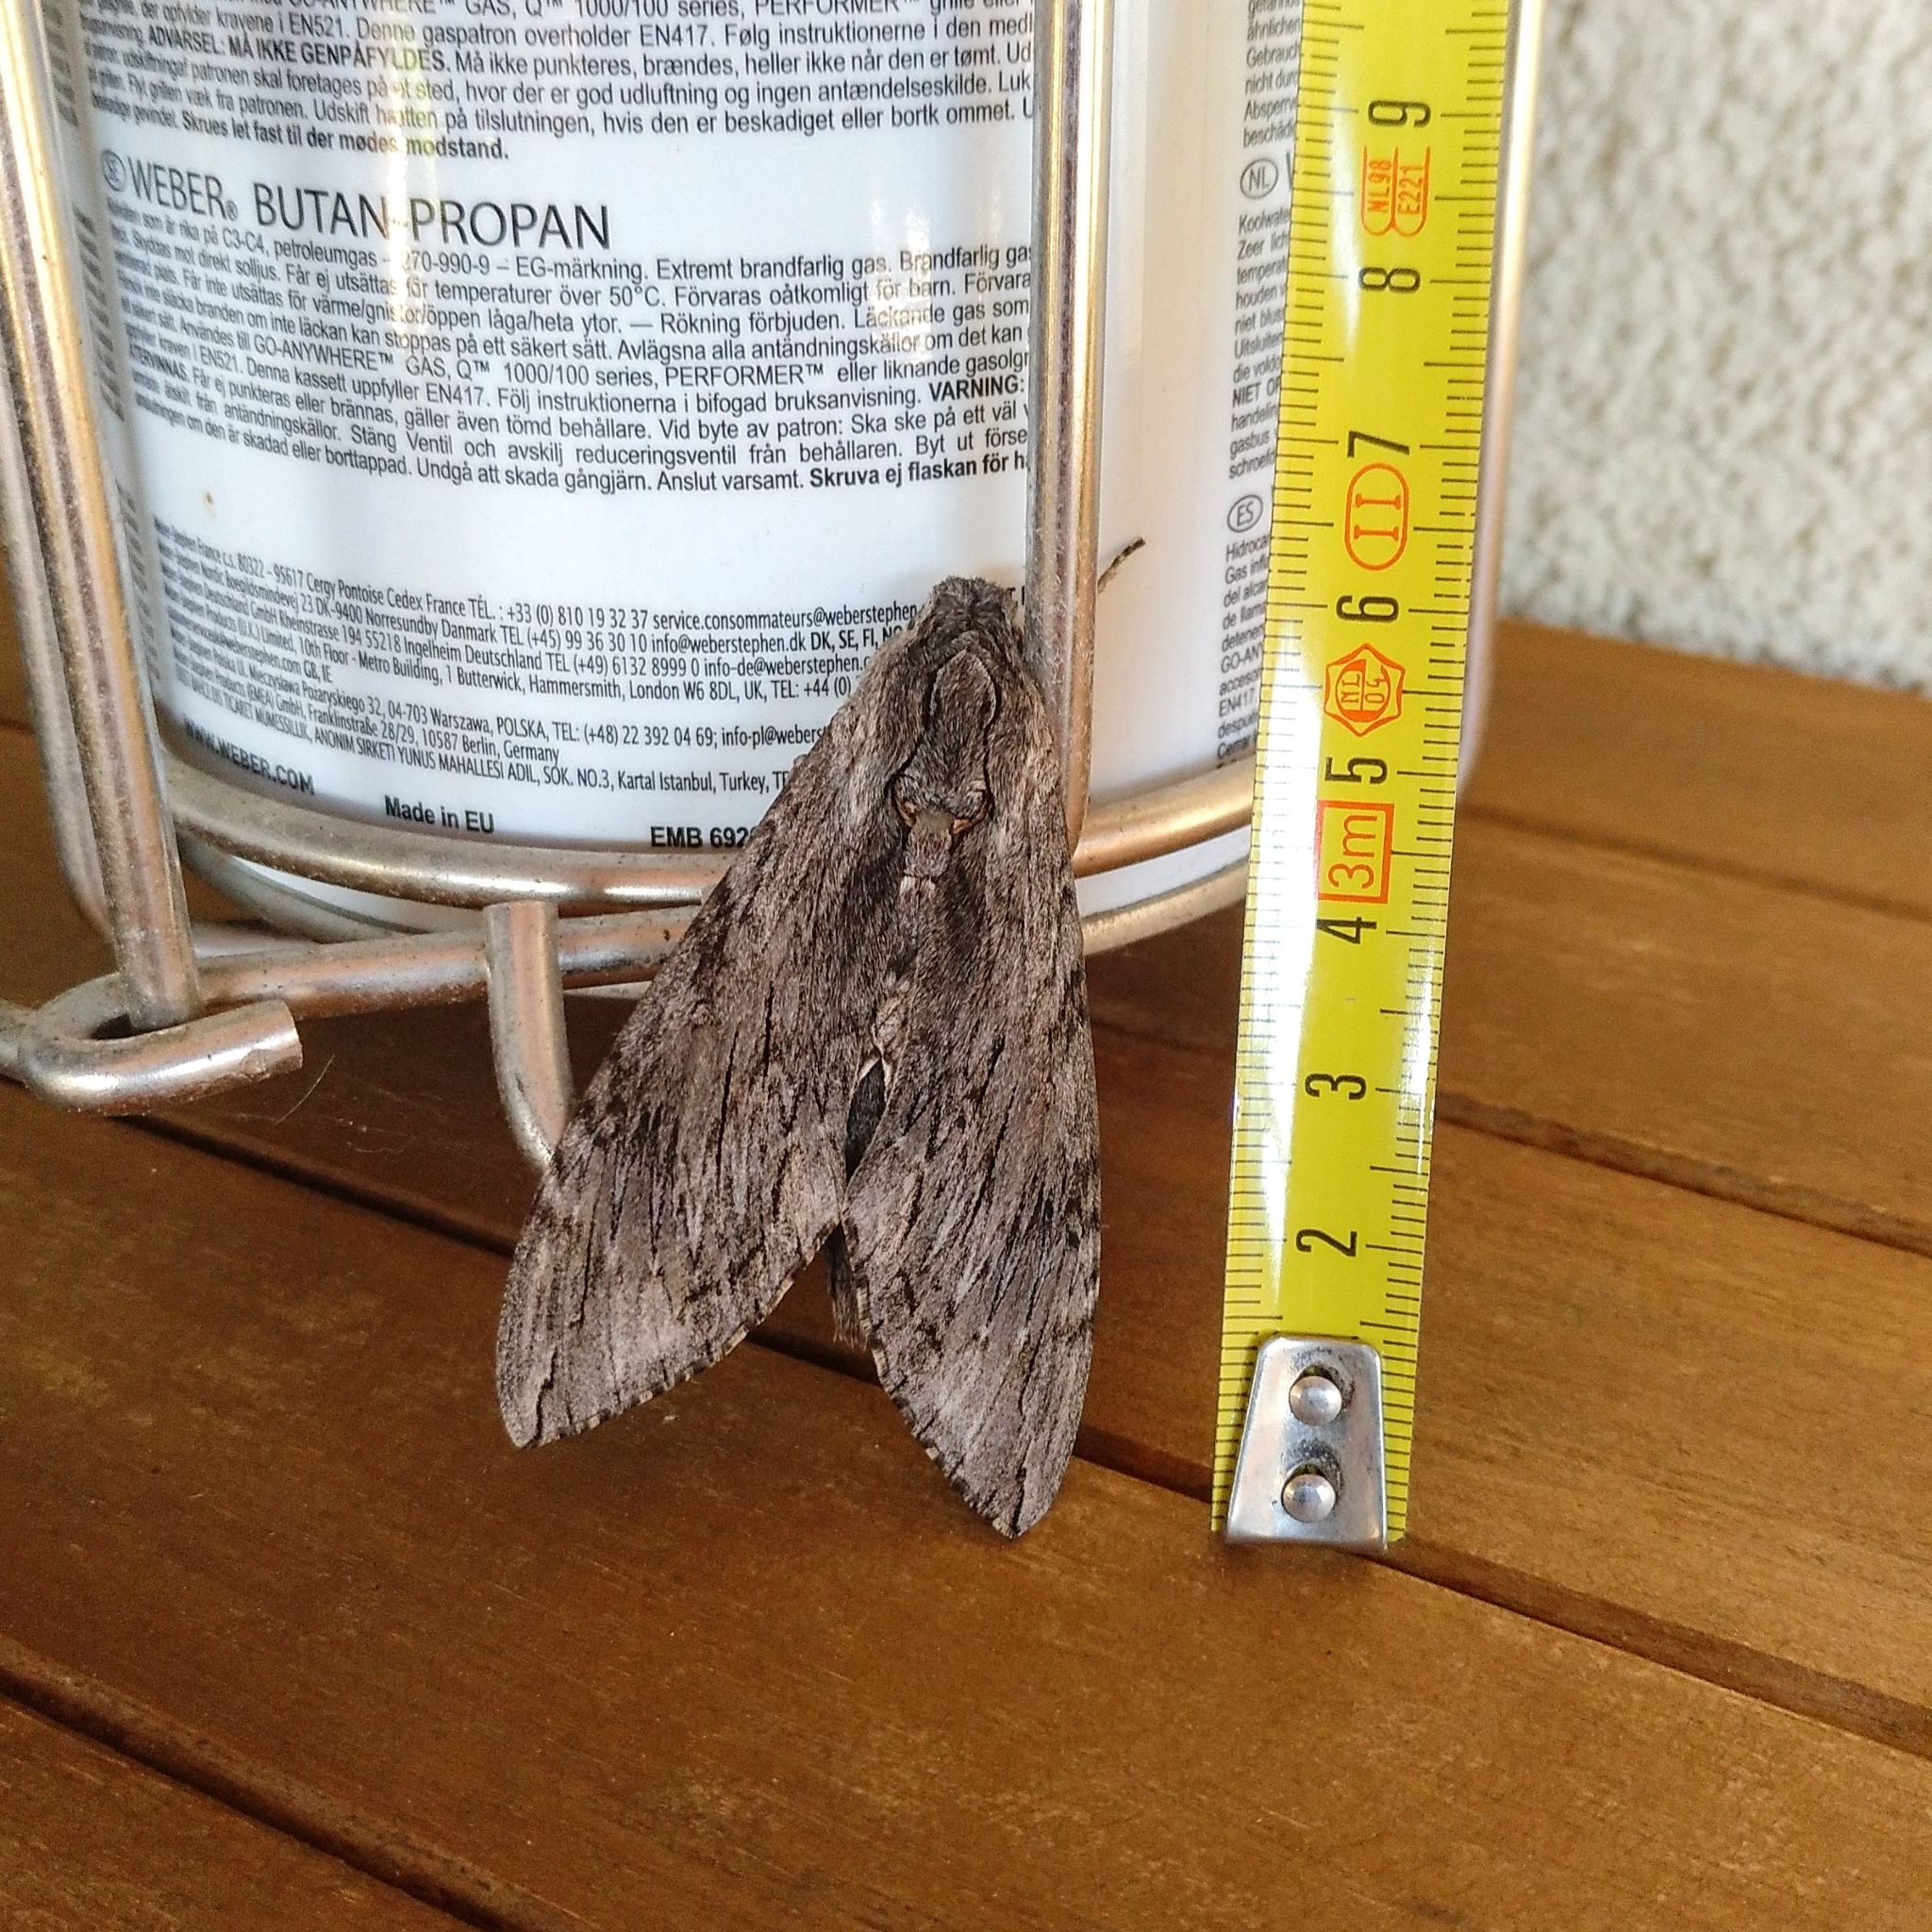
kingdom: Animalia
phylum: Arthropoda
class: Insecta
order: Lepidoptera
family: Sphingidae
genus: Agrius
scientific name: Agrius convolvuli
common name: Convolvulus hawkmoth
